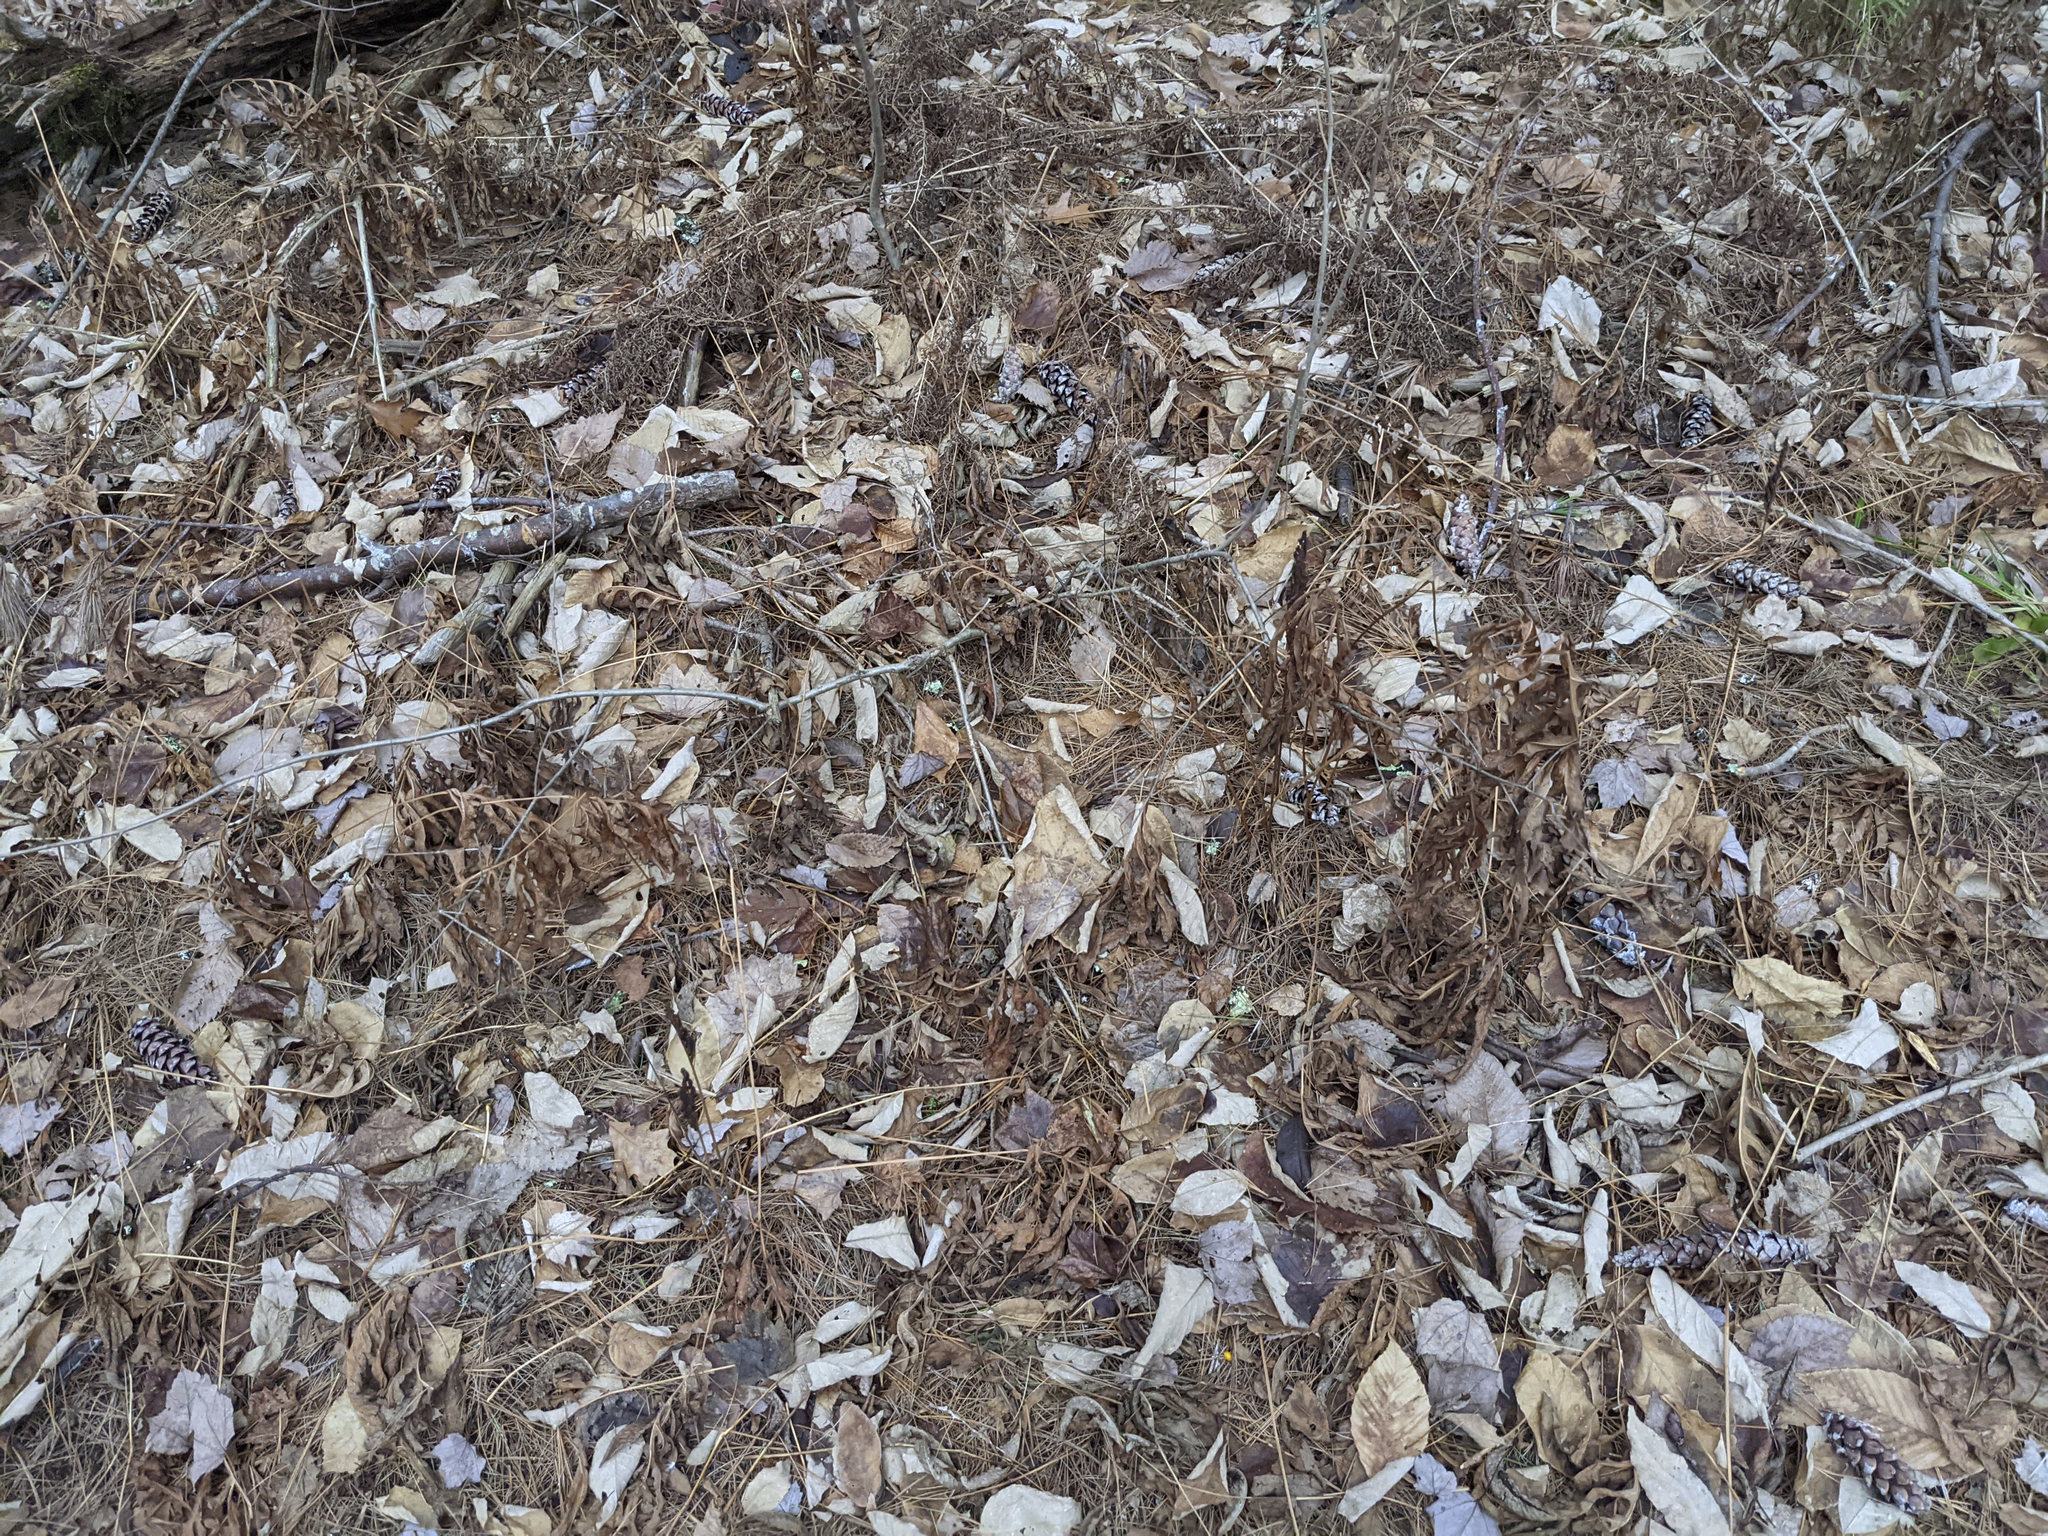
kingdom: Plantae
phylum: Tracheophyta
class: Polypodiopsida
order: Polypodiales
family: Onocleaceae
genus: Onoclea
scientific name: Onoclea sensibilis
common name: Sensitive fern
